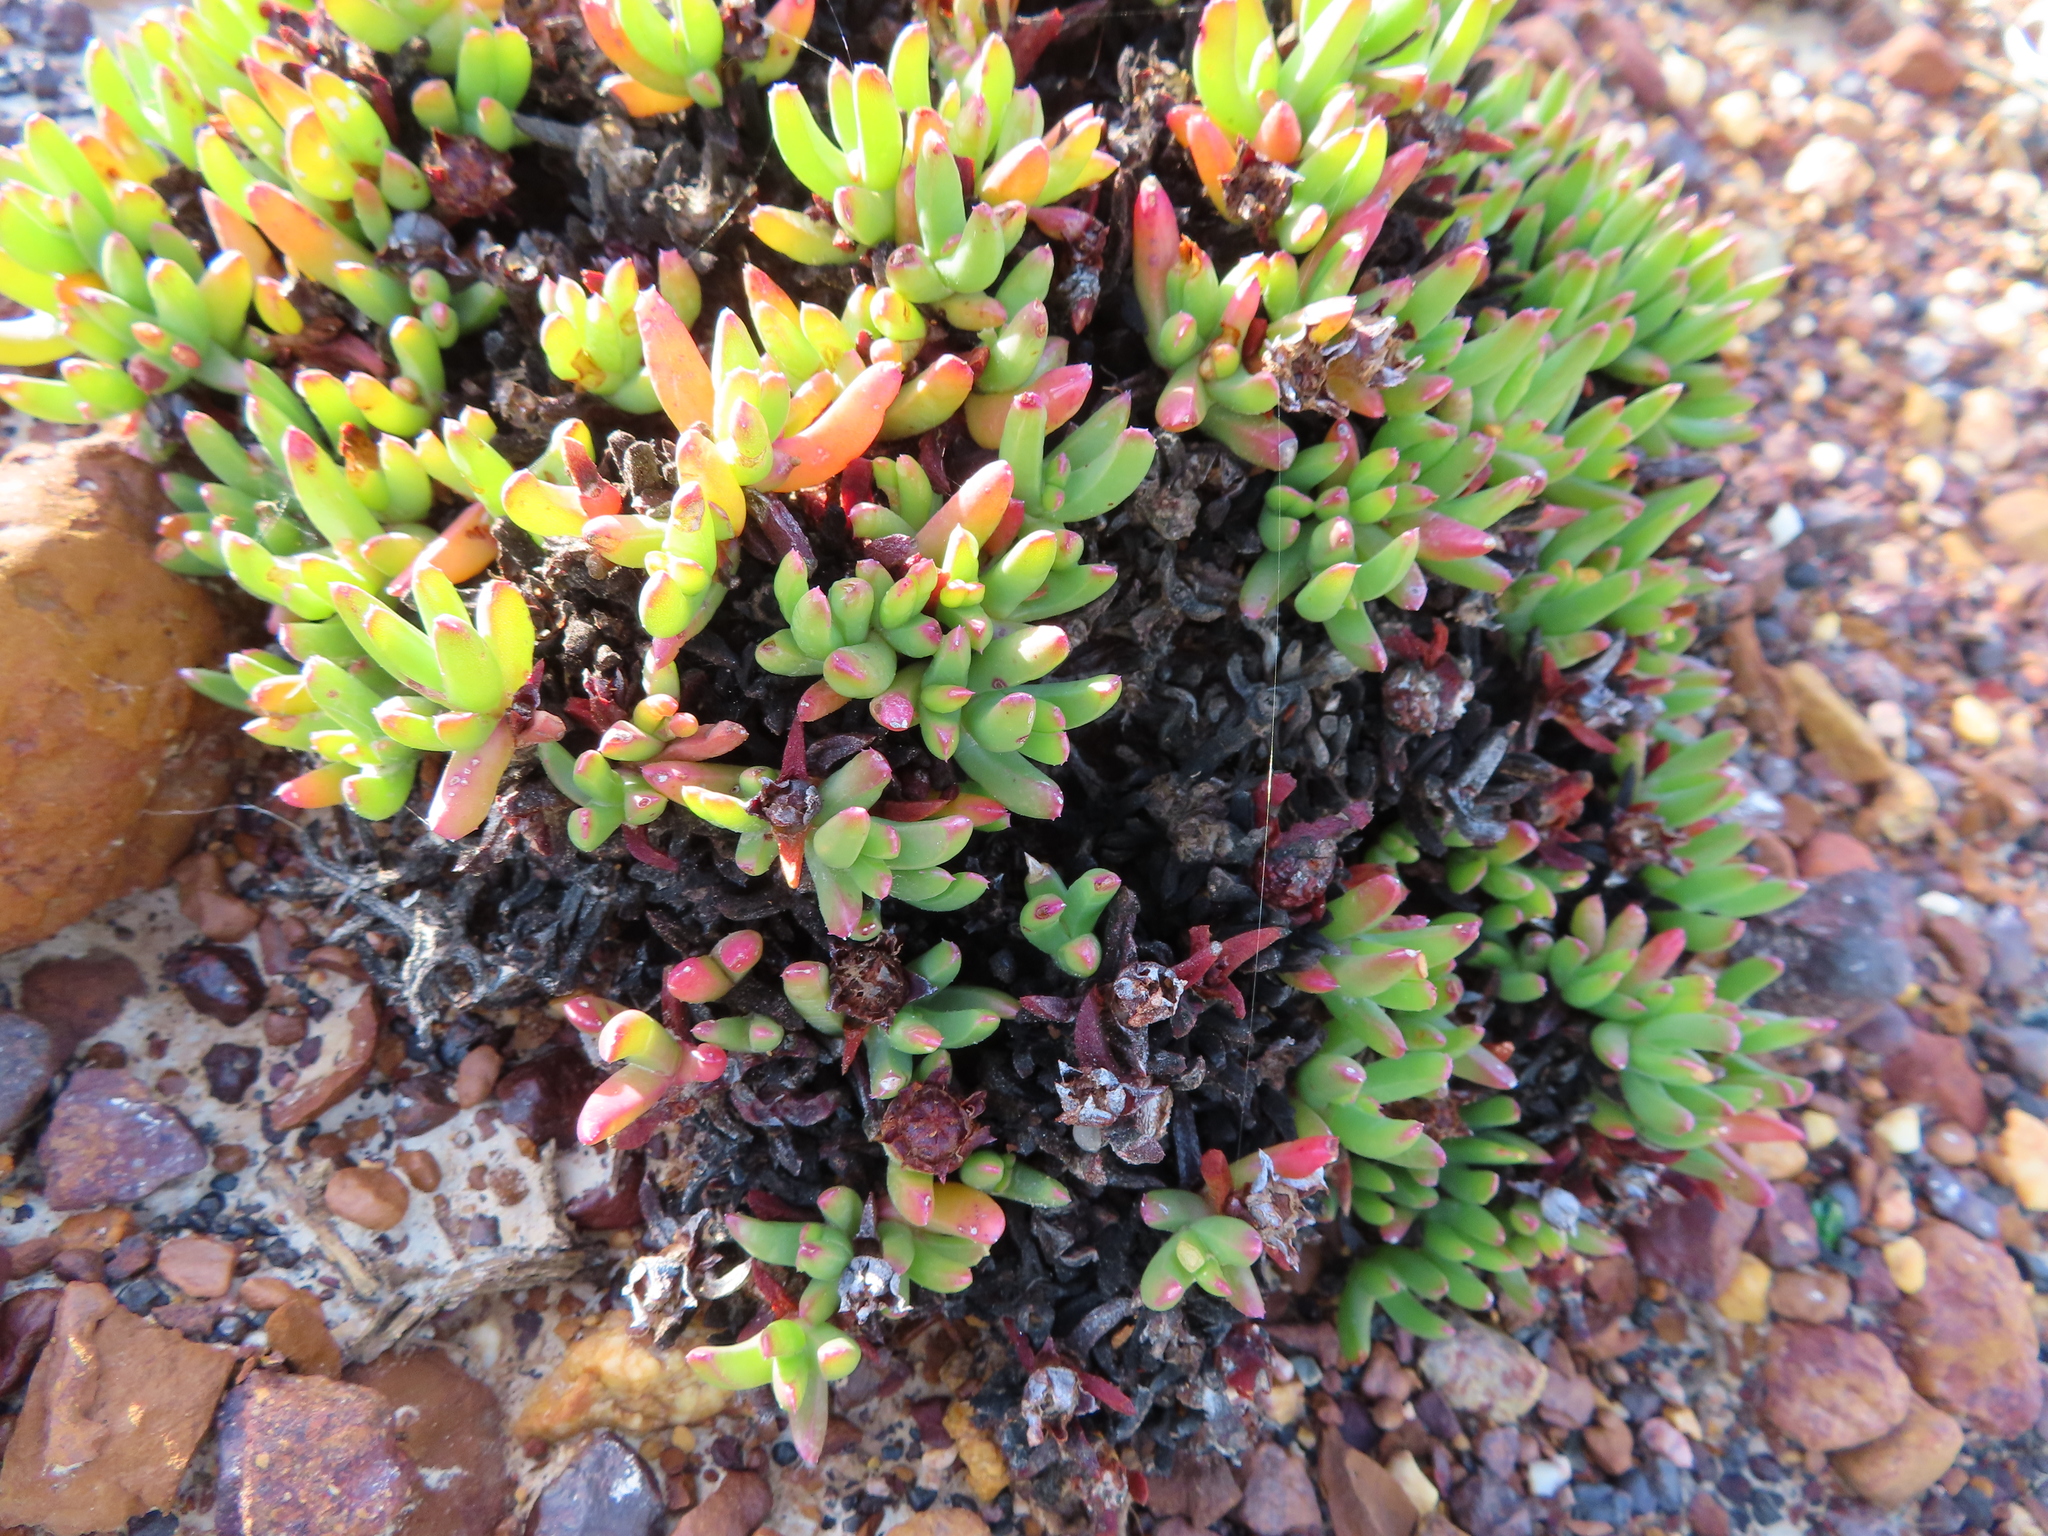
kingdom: Plantae
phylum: Tracheophyta
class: Magnoliopsida
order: Caryophyllales
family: Aizoaceae
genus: Acrodon
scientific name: Acrodon parvifolius
